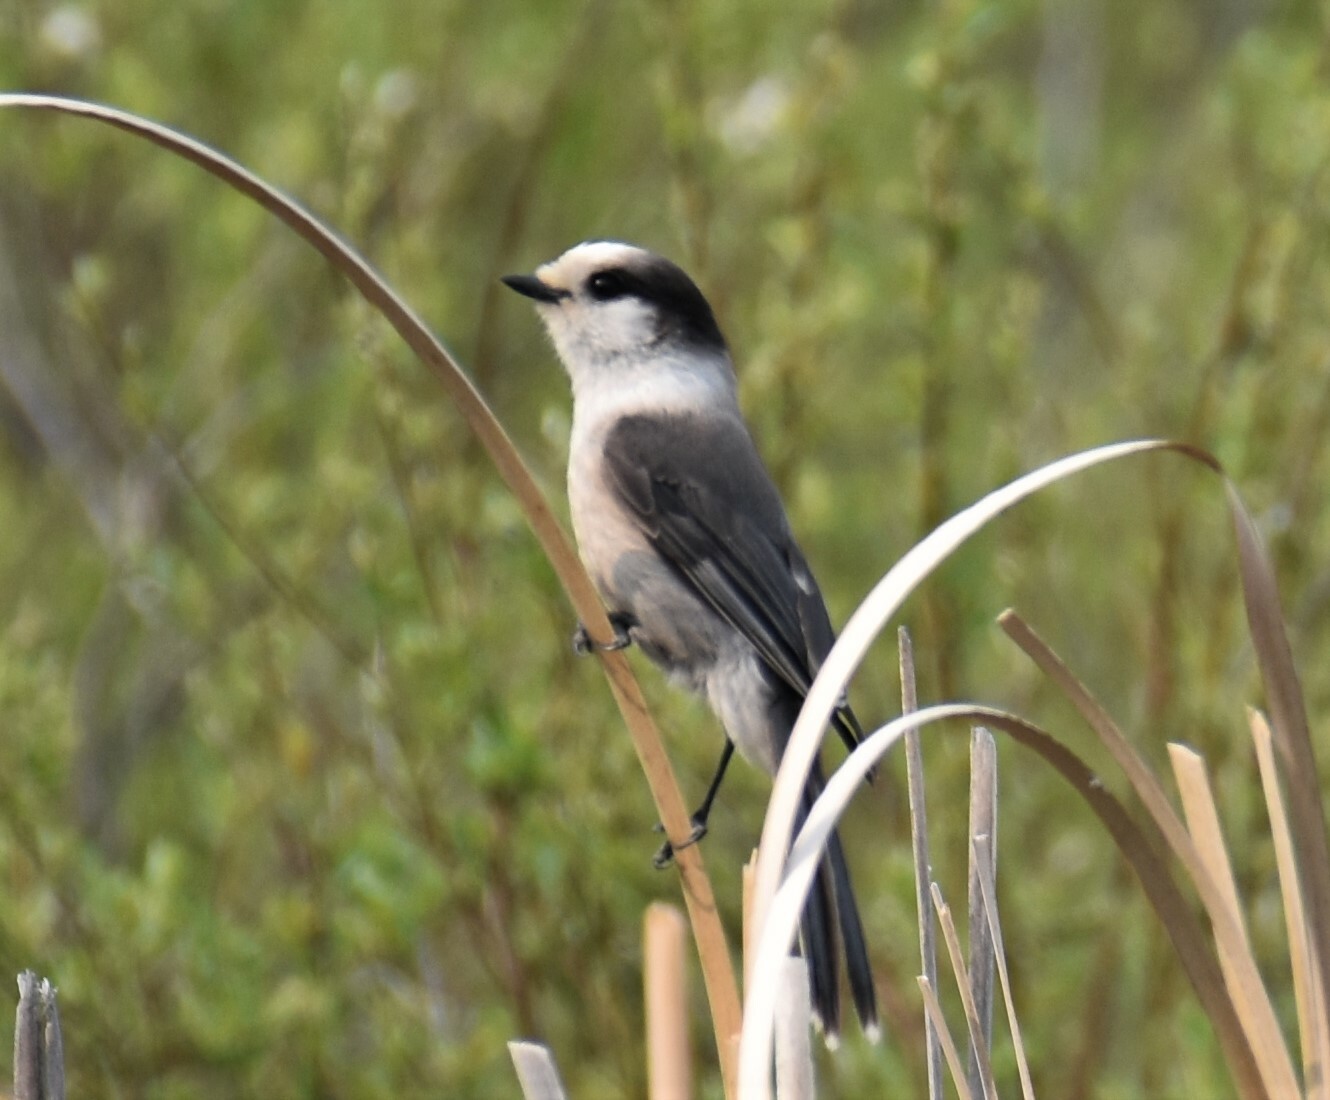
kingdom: Animalia
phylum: Chordata
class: Aves
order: Passeriformes
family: Corvidae
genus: Perisoreus
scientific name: Perisoreus canadensis
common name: Gray jay
